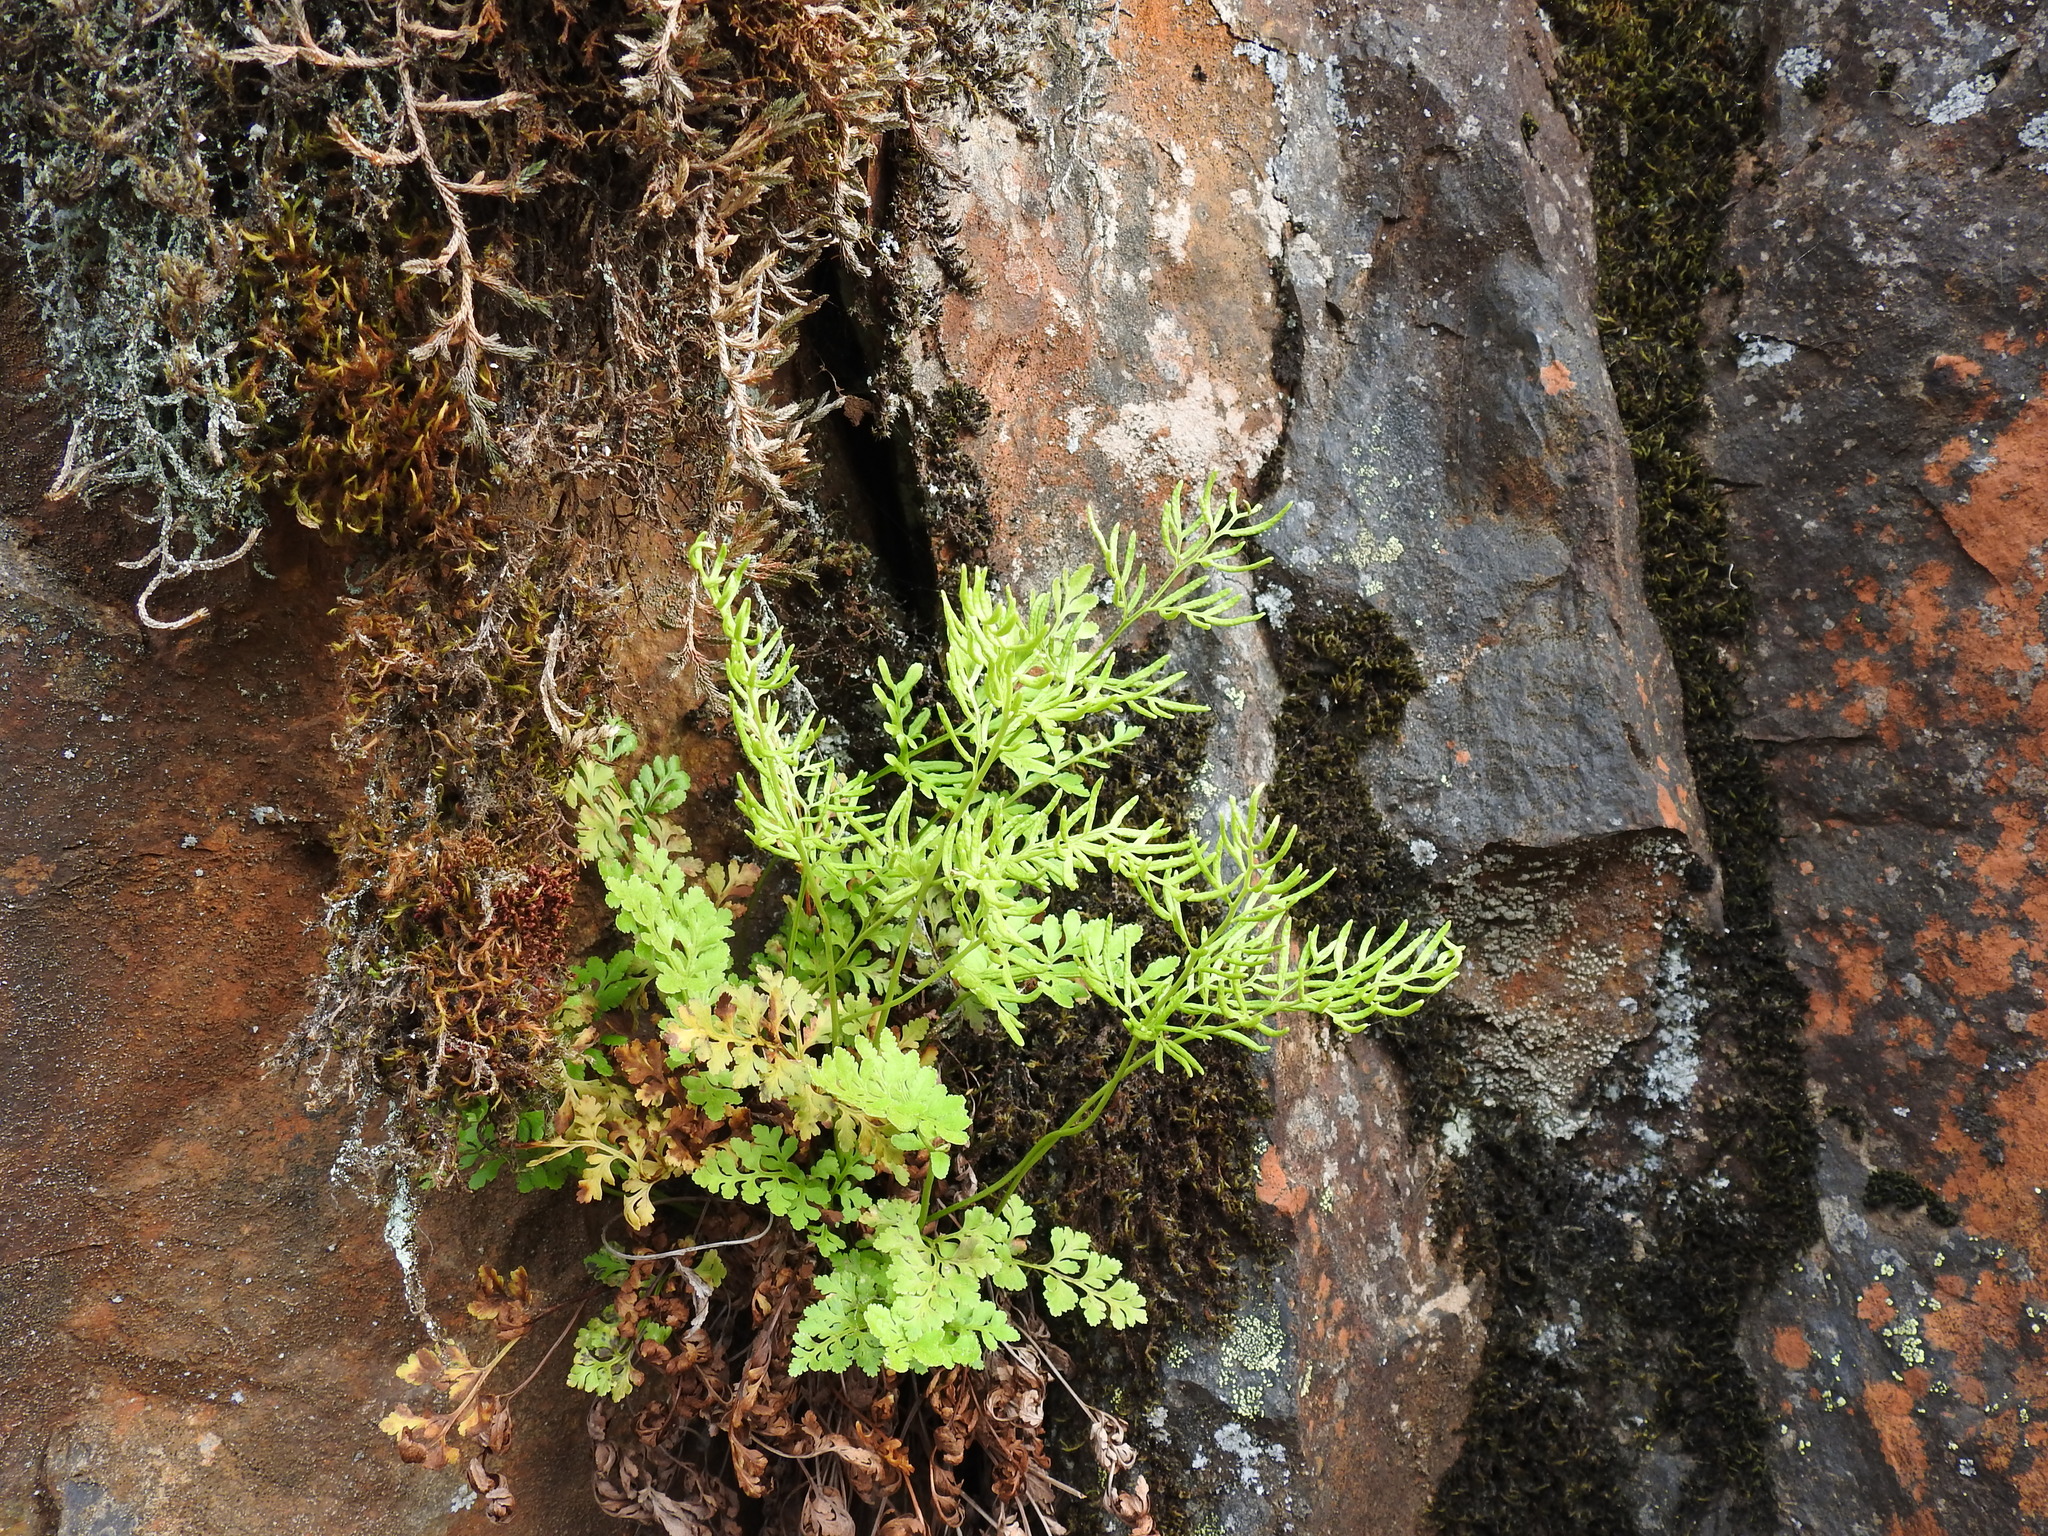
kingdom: Plantae
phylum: Tracheophyta
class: Polypodiopsida
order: Polypodiales
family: Pteridaceae
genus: Cryptogramma
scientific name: Cryptogramma acrostichoides
